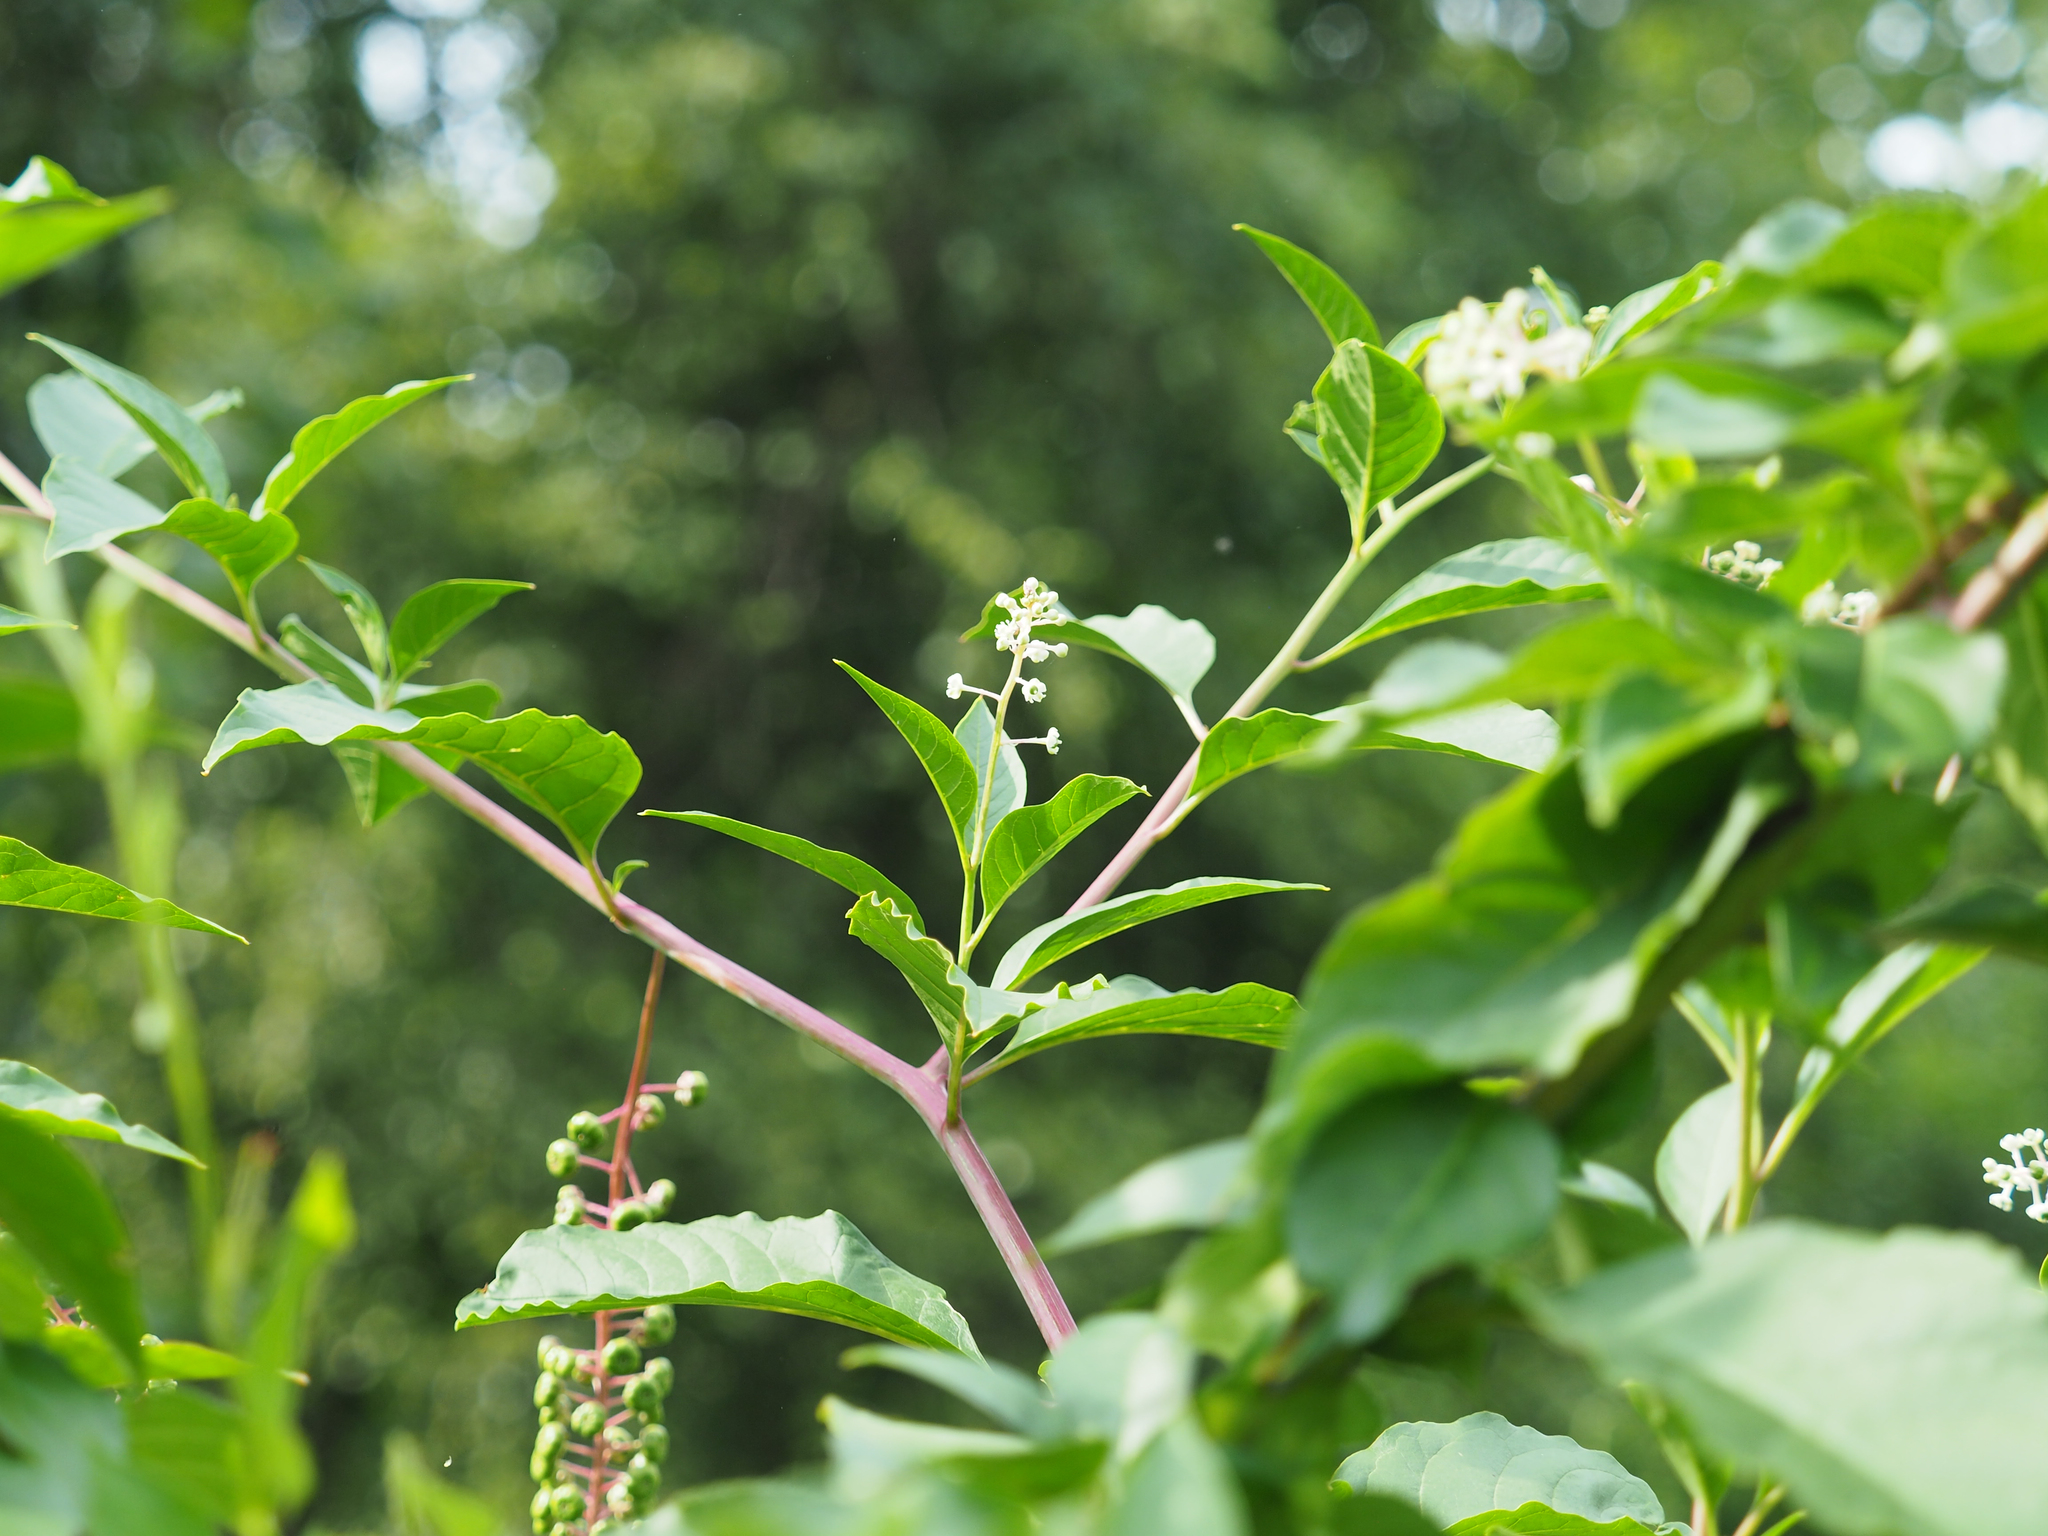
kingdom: Plantae
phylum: Tracheophyta
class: Magnoliopsida
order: Caryophyllales
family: Phytolaccaceae
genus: Phytolacca
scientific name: Phytolacca americana
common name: American pokeweed
